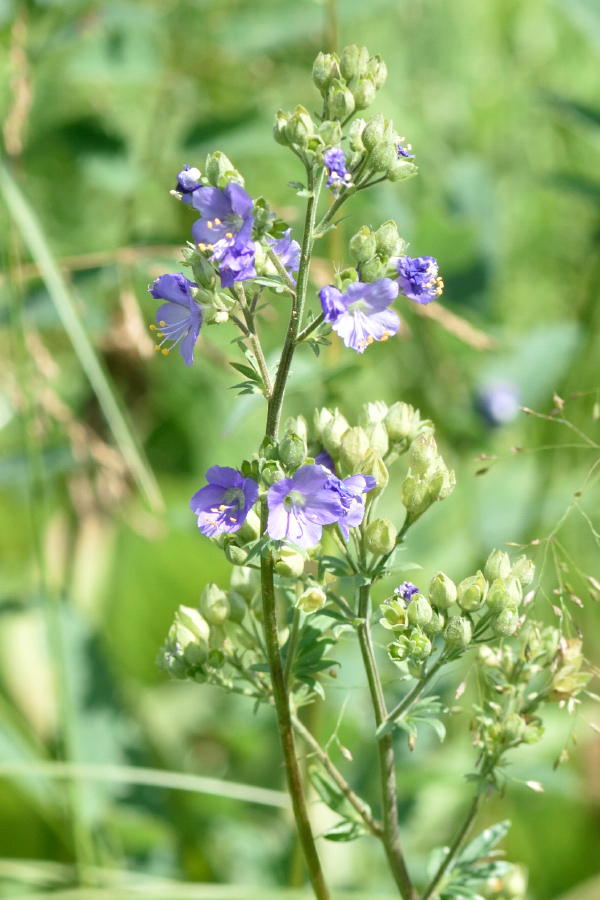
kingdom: Plantae
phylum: Tracheophyta
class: Magnoliopsida
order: Ericales
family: Polemoniaceae
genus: Polemonium
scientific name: Polemonium caeruleum
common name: Jacob's-ladder
